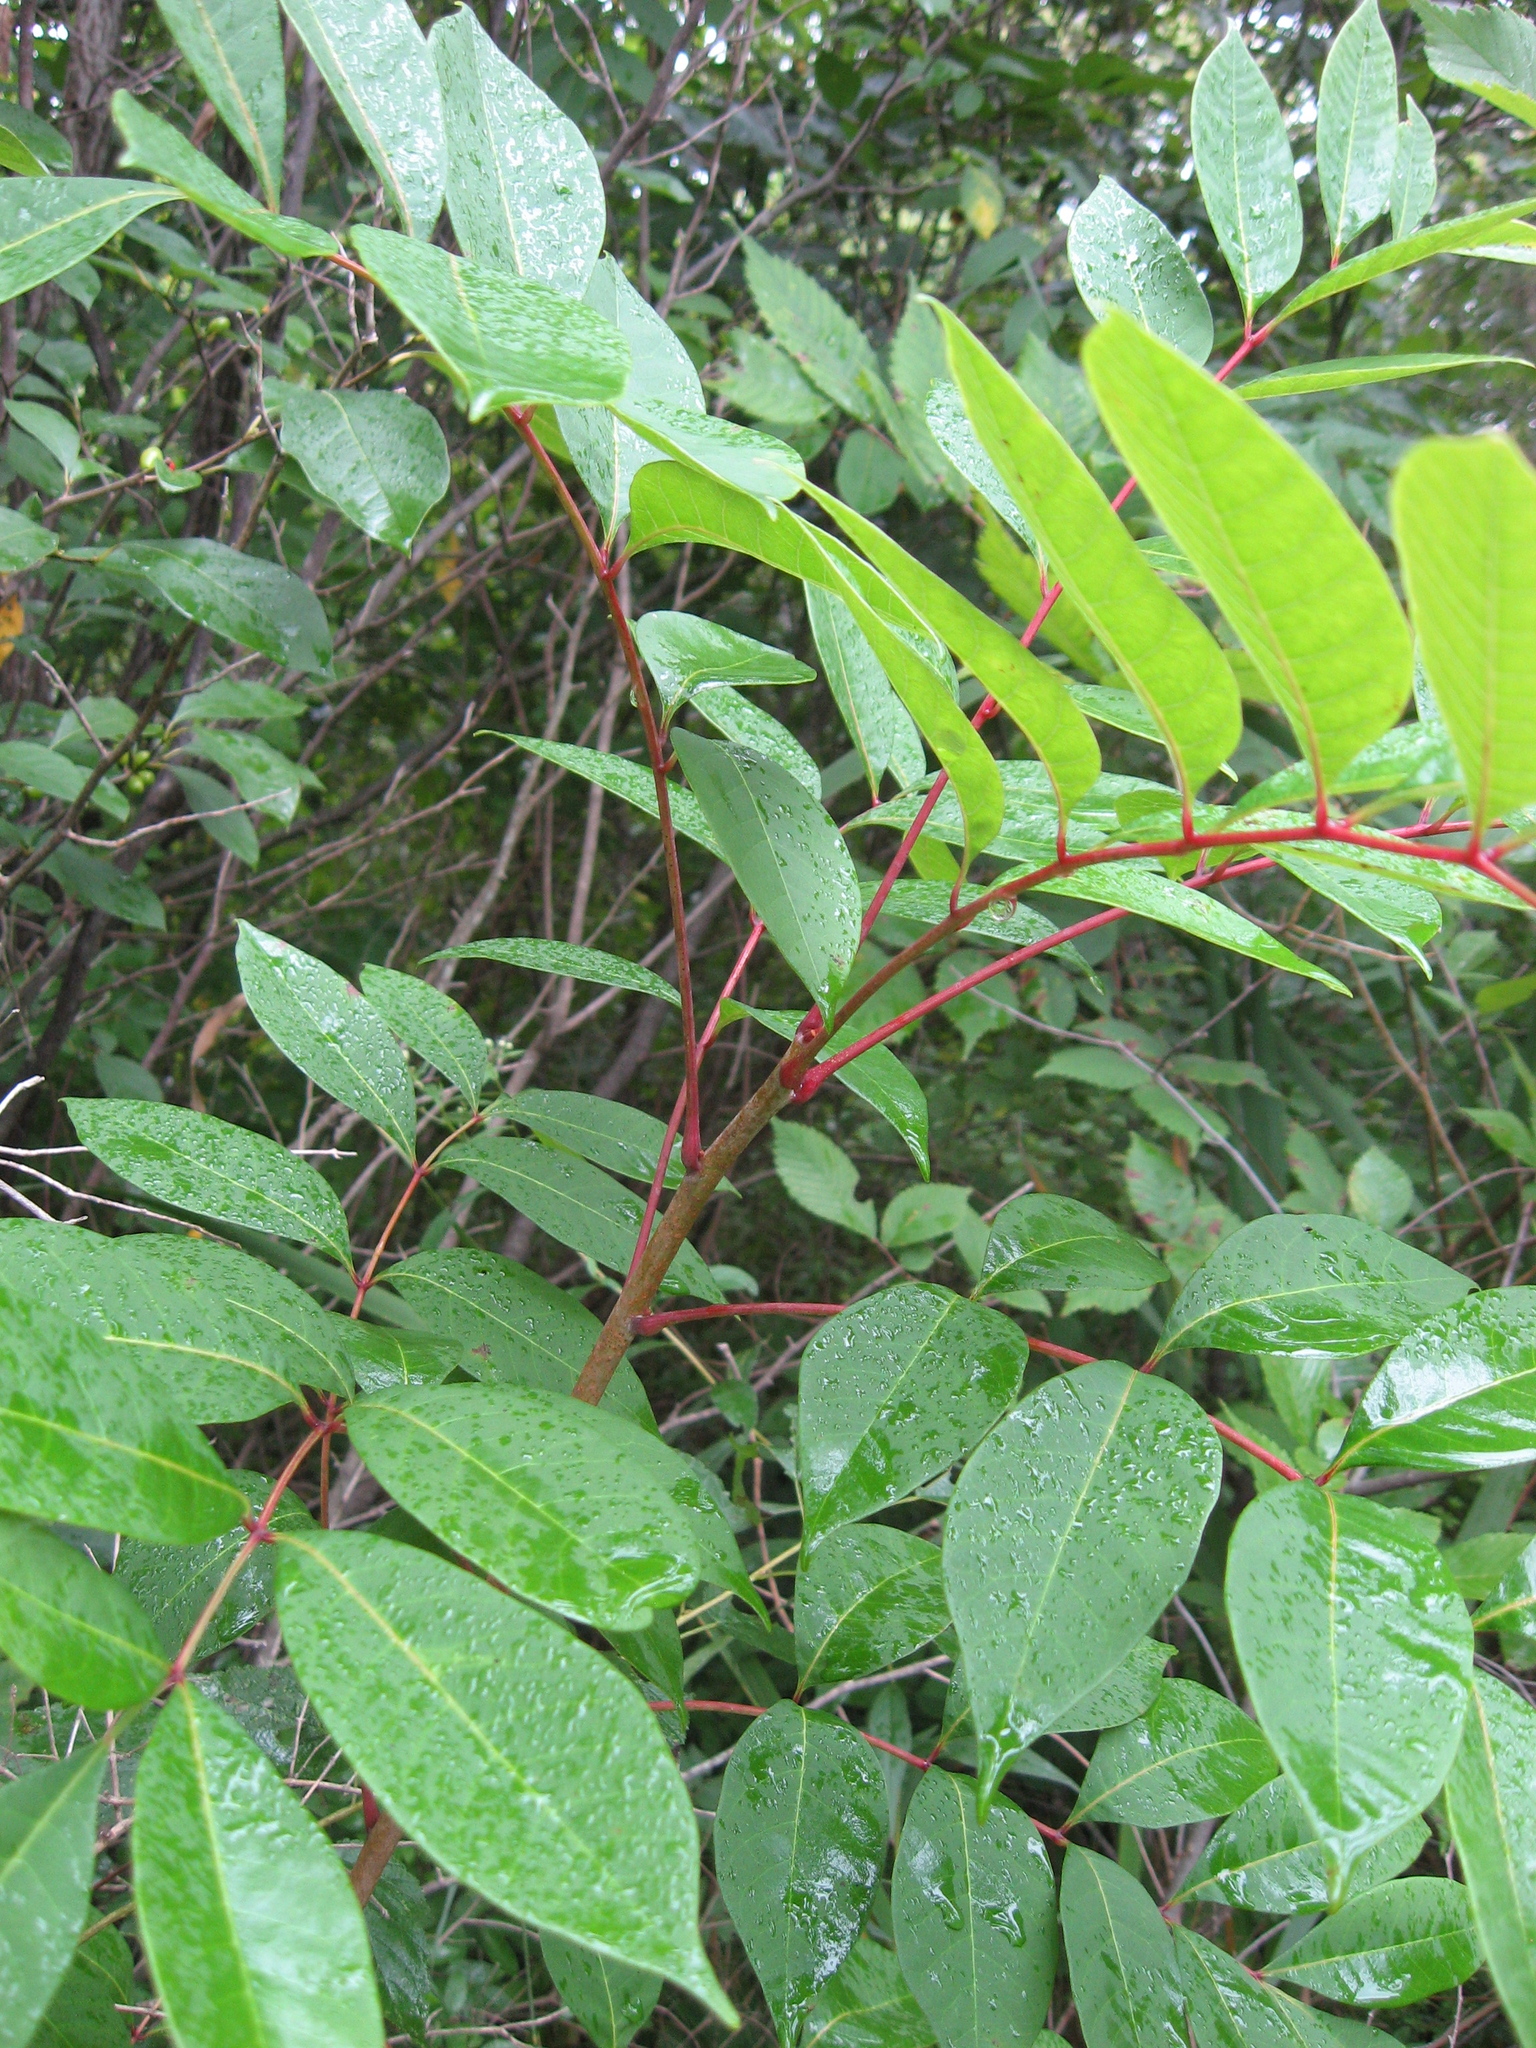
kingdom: Plantae
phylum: Tracheophyta
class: Magnoliopsida
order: Sapindales
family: Anacardiaceae
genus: Toxicodendron
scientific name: Toxicodendron vernix
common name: Poison sumac
